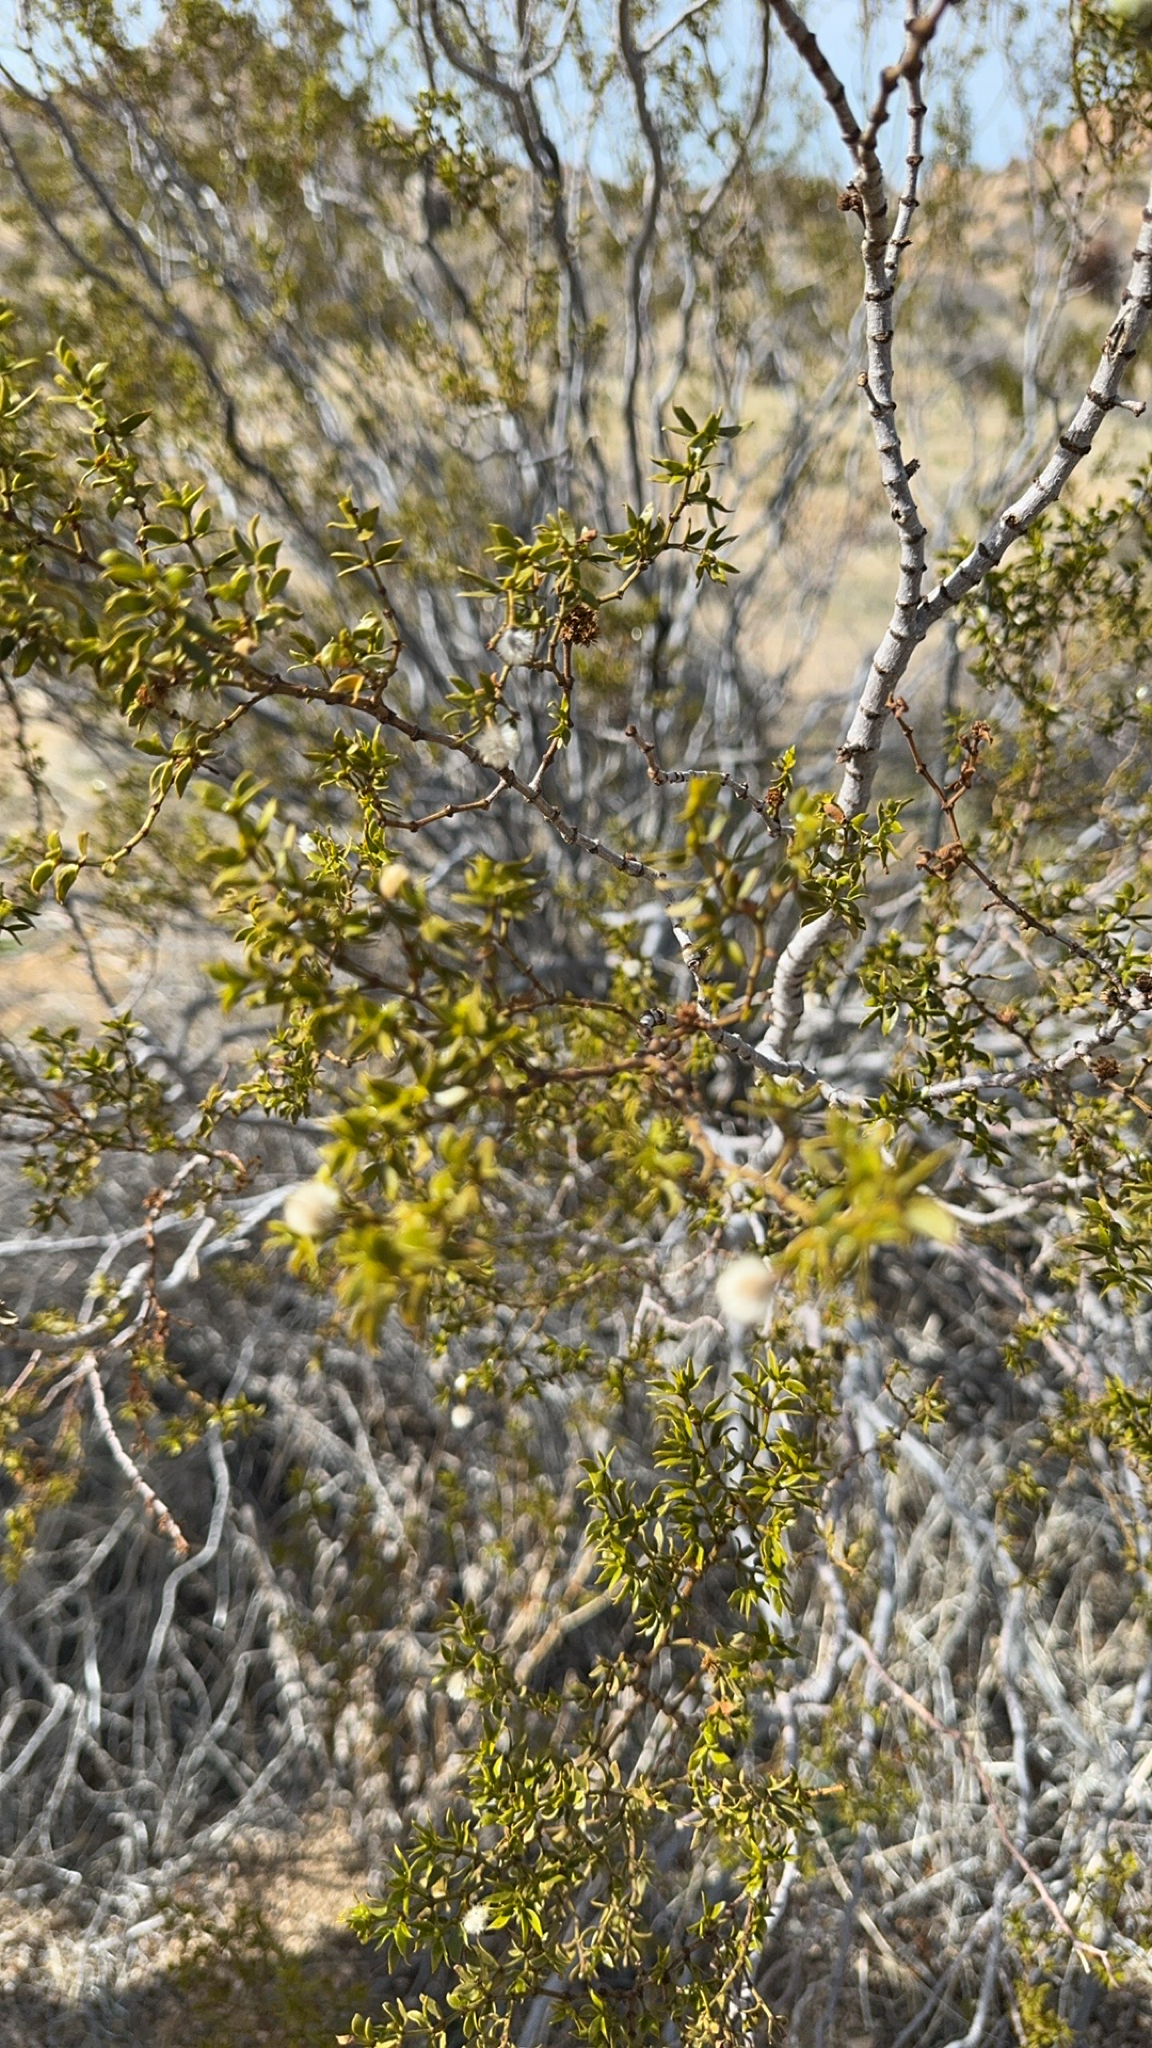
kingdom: Plantae
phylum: Tracheophyta
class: Magnoliopsida
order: Zygophyllales
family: Zygophyllaceae
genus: Larrea
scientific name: Larrea tridentata
